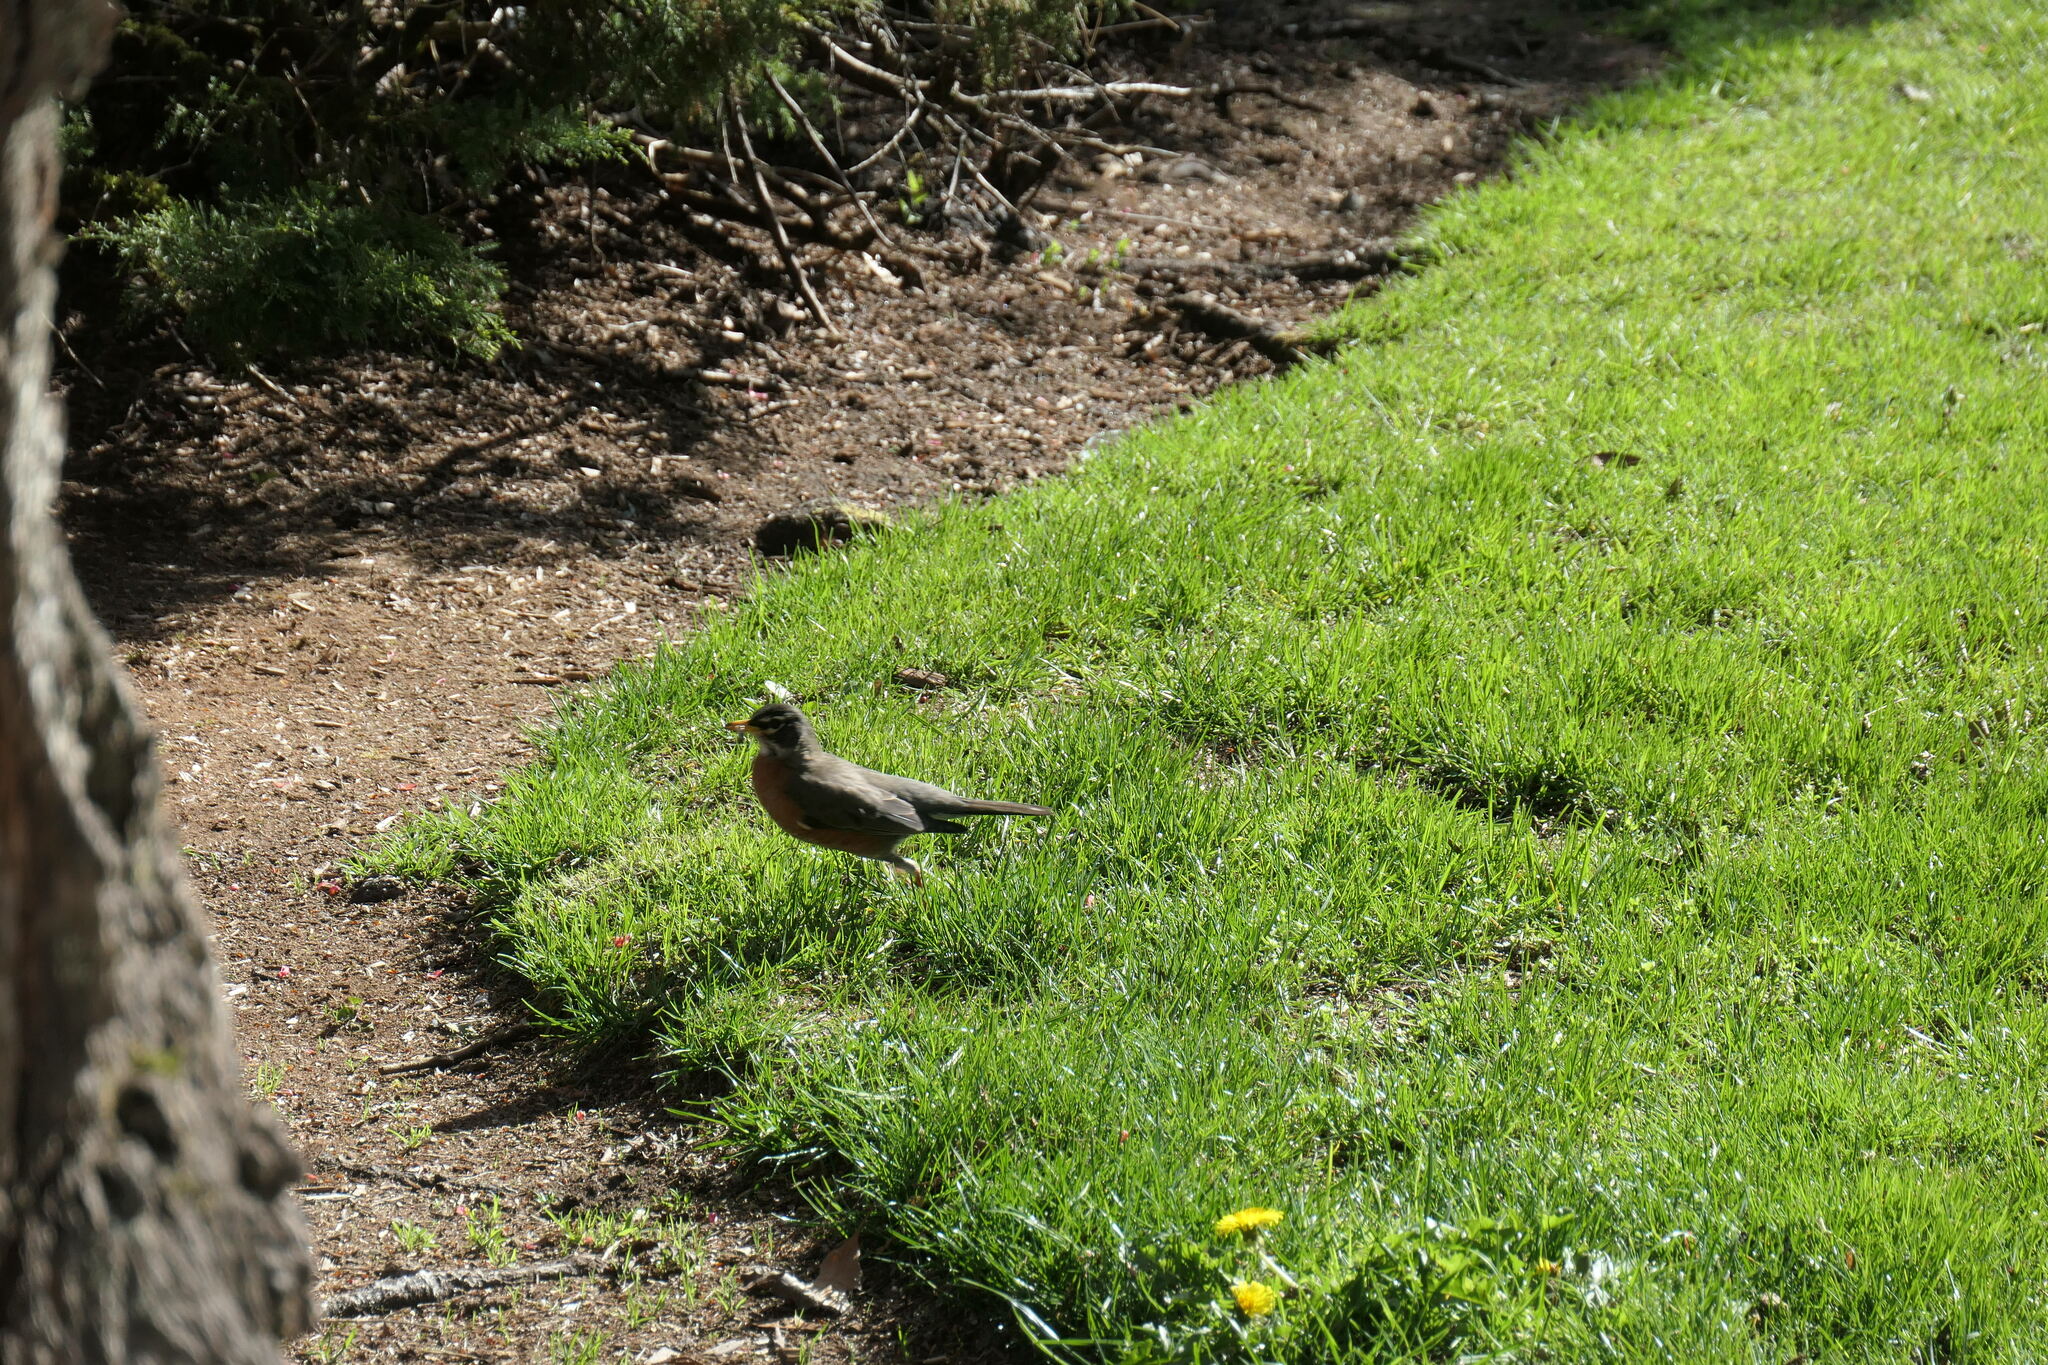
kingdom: Animalia
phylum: Chordata
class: Aves
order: Passeriformes
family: Turdidae
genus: Turdus
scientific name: Turdus migratorius
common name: American robin
